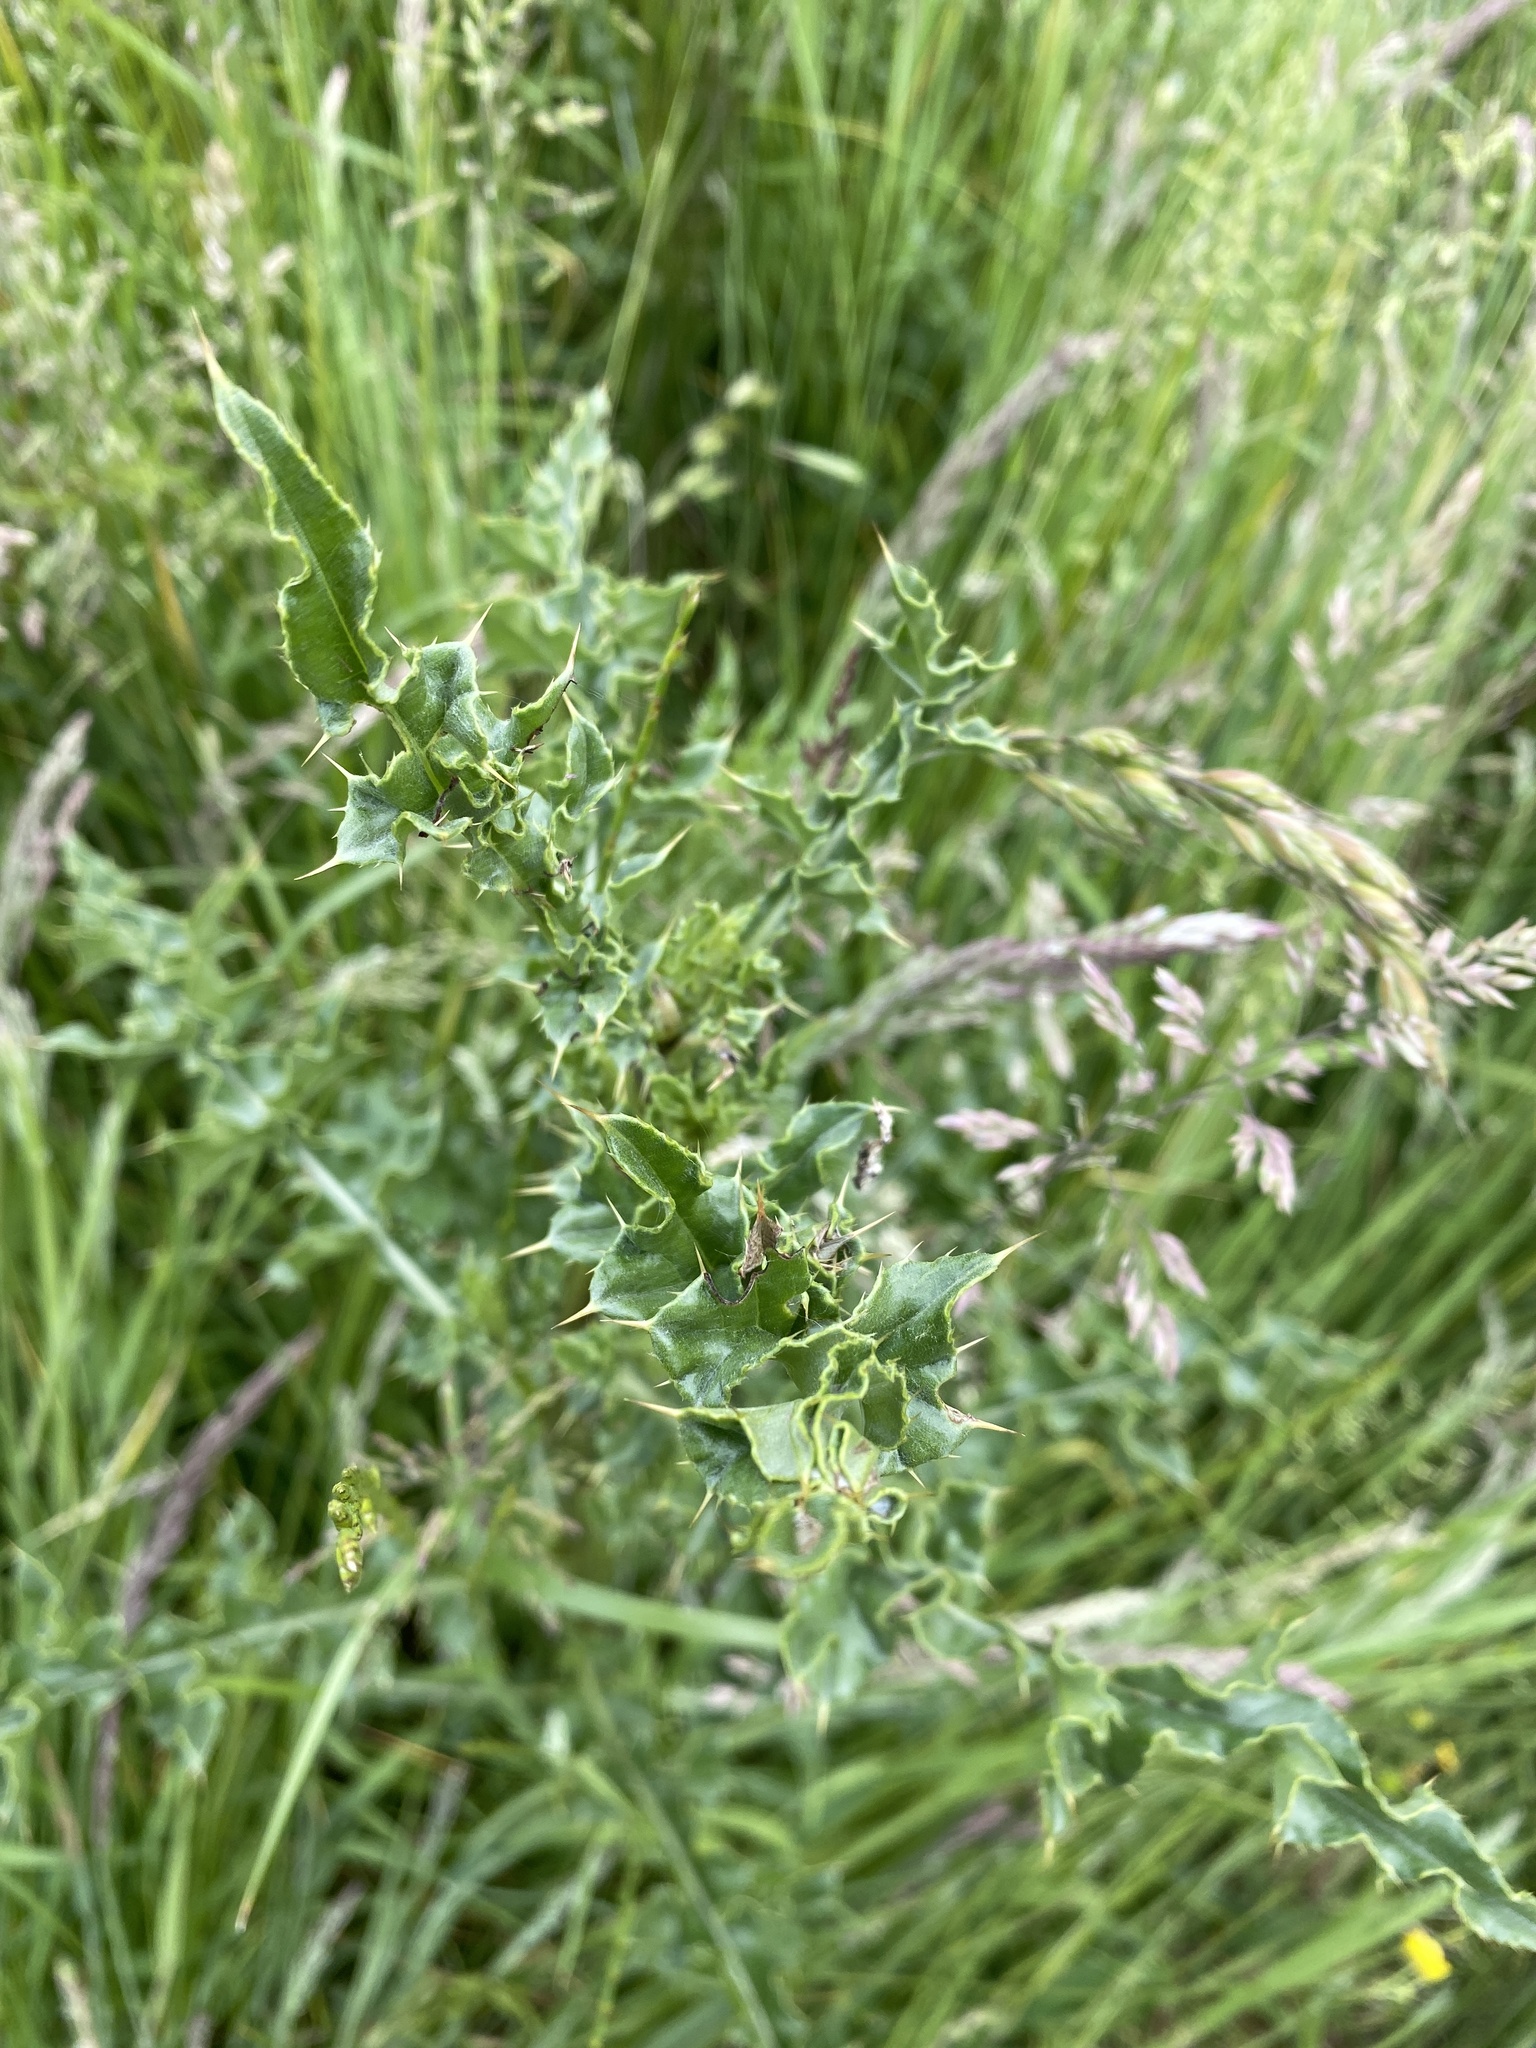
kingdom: Plantae
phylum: Tracheophyta
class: Magnoliopsida
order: Asterales
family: Asteraceae
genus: Cirsium
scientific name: Cirsium arvense
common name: Creeping thistle
